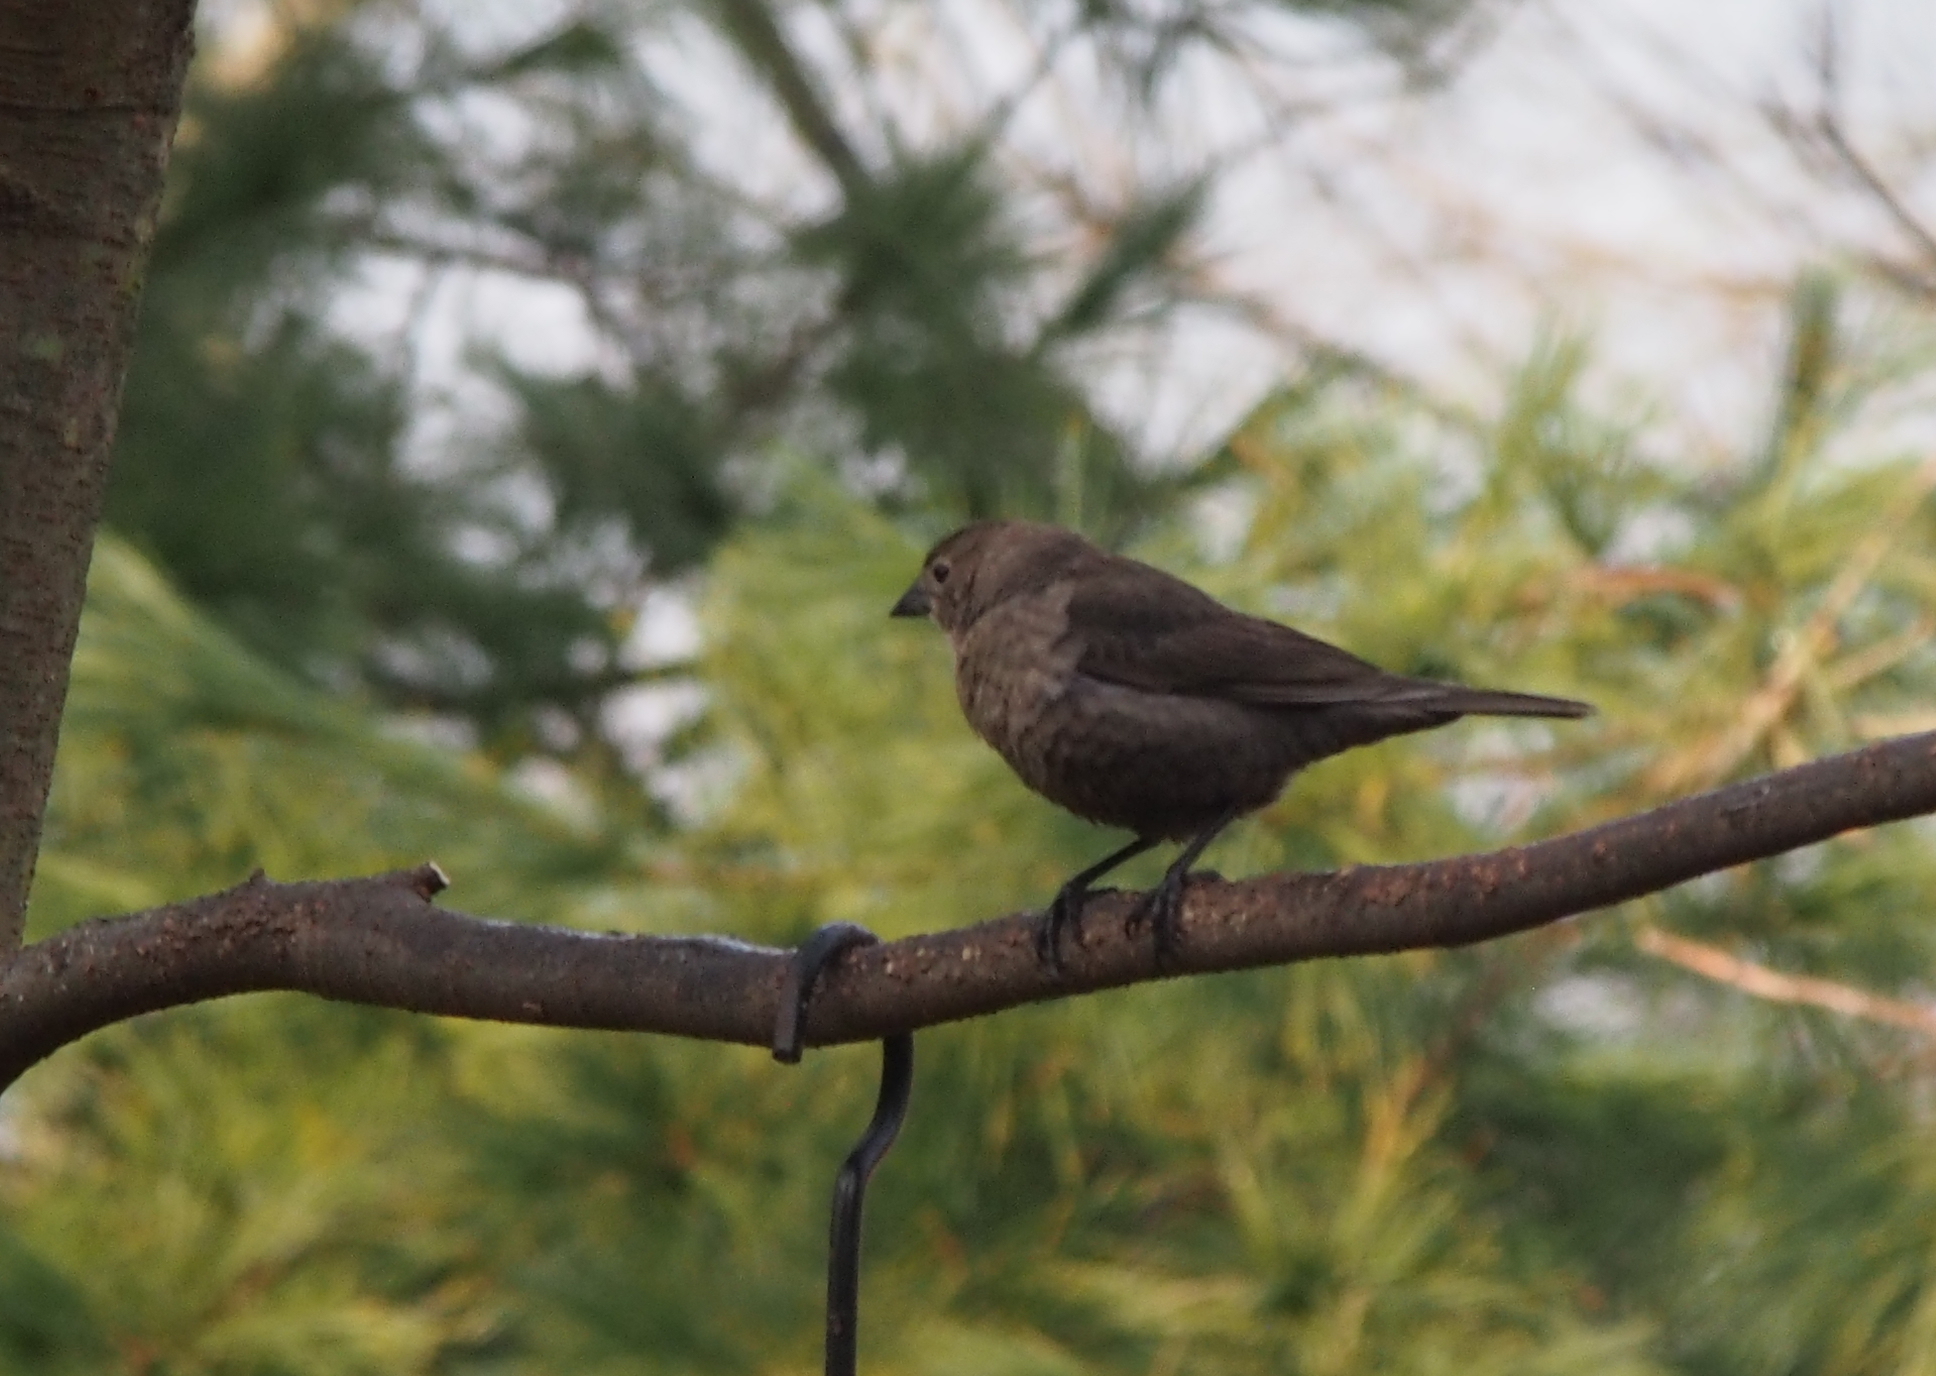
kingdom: Animalia
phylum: Chordata
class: Aves
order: Passeriformes
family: Icteridae
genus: Molothrus
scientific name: Molothrus ater
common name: Brown-headed cowbird
